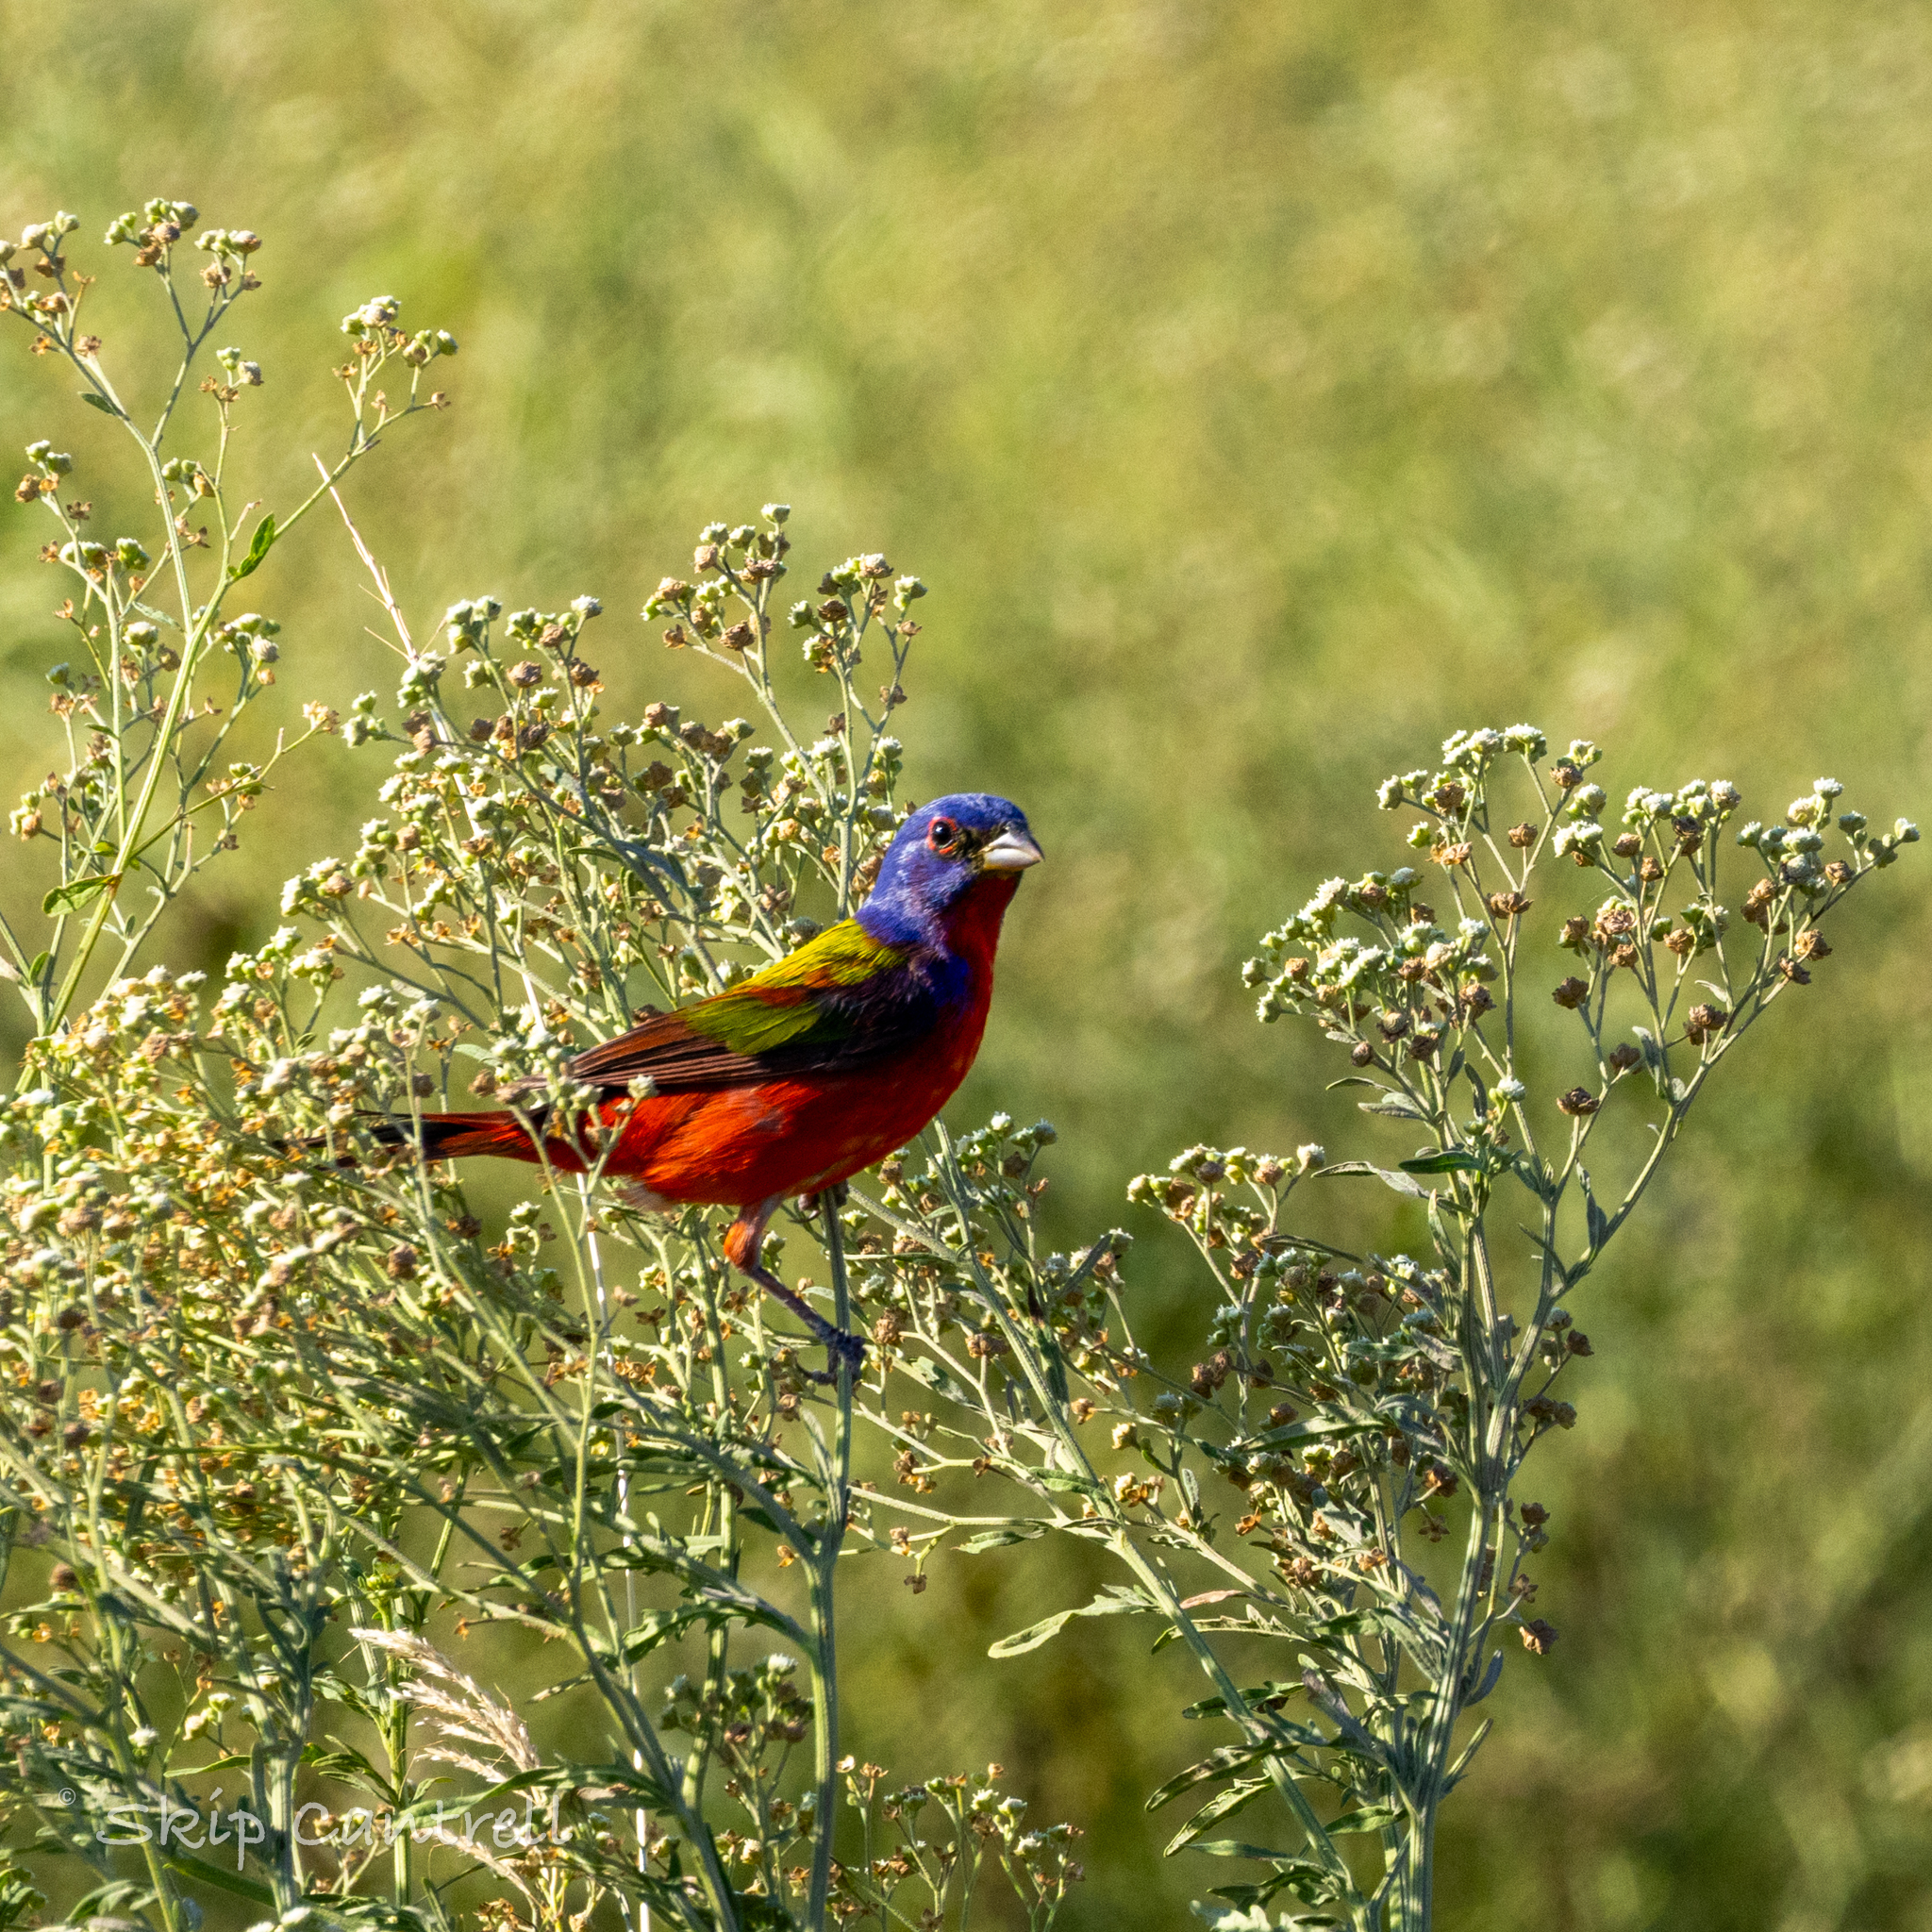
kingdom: Animalia
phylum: Chordata
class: Aves
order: Passeriformes
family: Cardinalidae
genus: Passerina
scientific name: Passerina ciris
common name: Painted bunting
